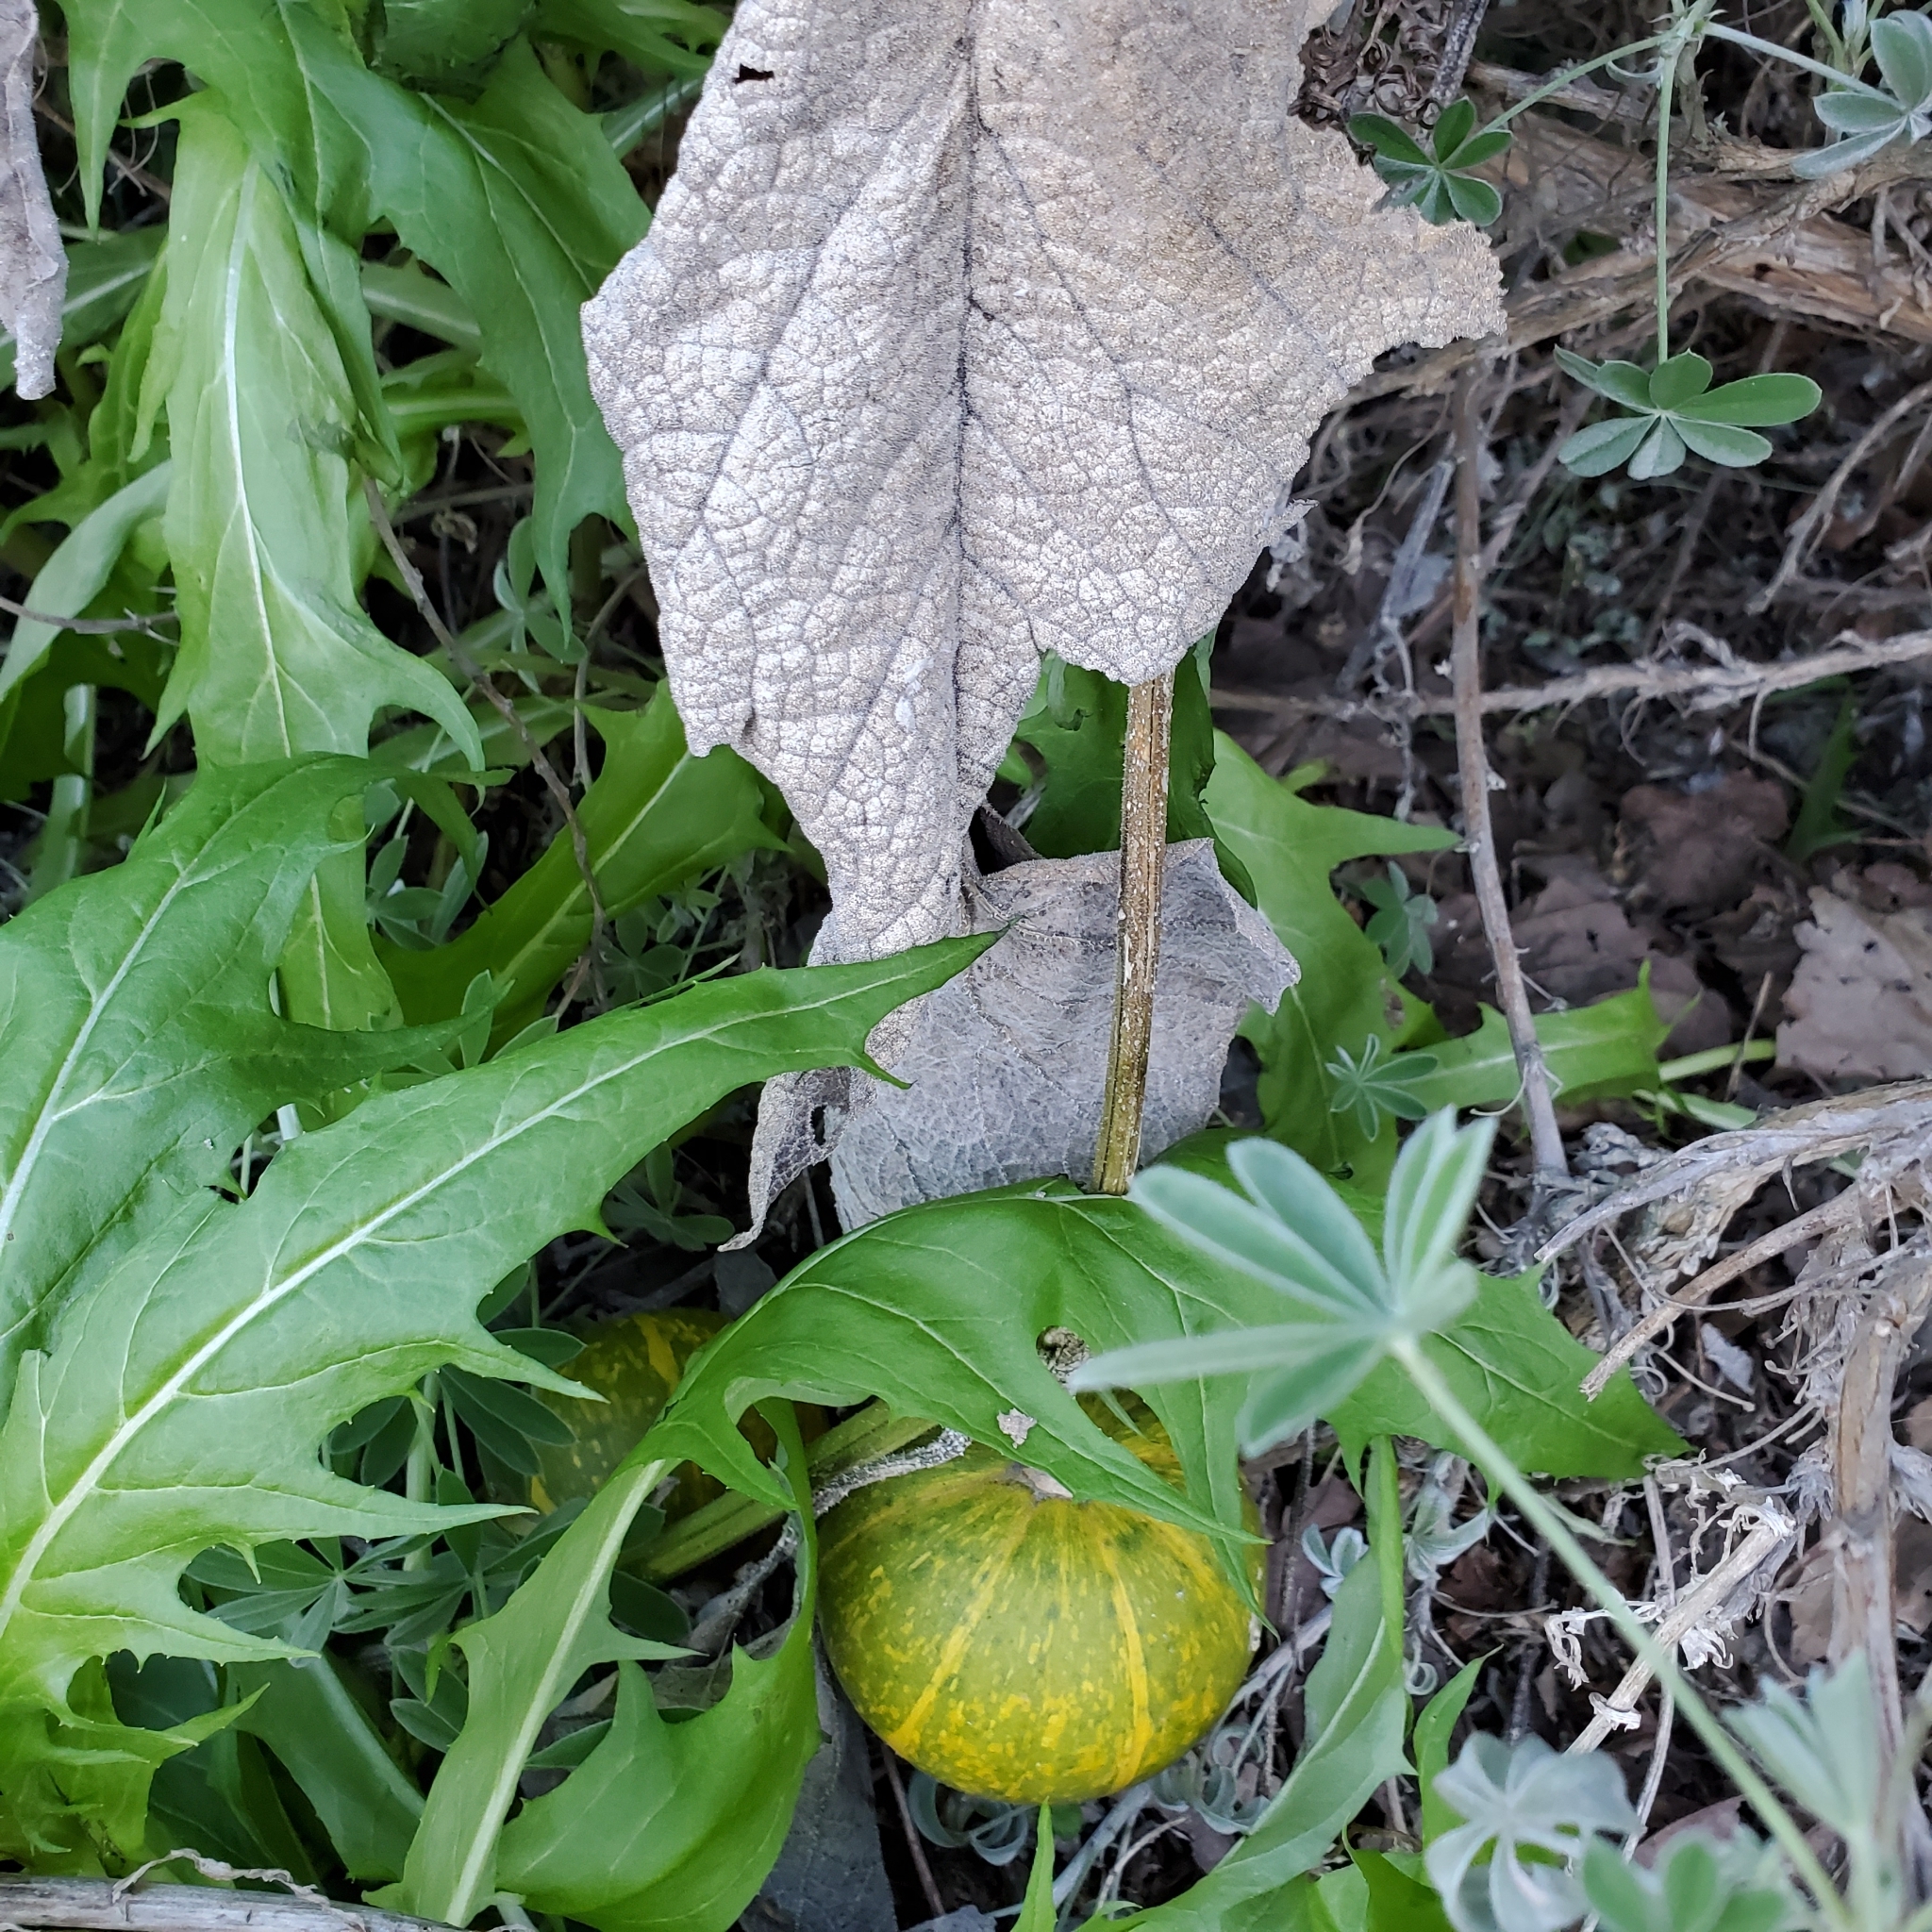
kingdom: Plantae
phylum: Tracheophyta
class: Magnoliopsida
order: Cucurbitales
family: Cucurbitaceae
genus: Cucurbita
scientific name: Cucurbita foetidissima
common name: Buffalo gourd
